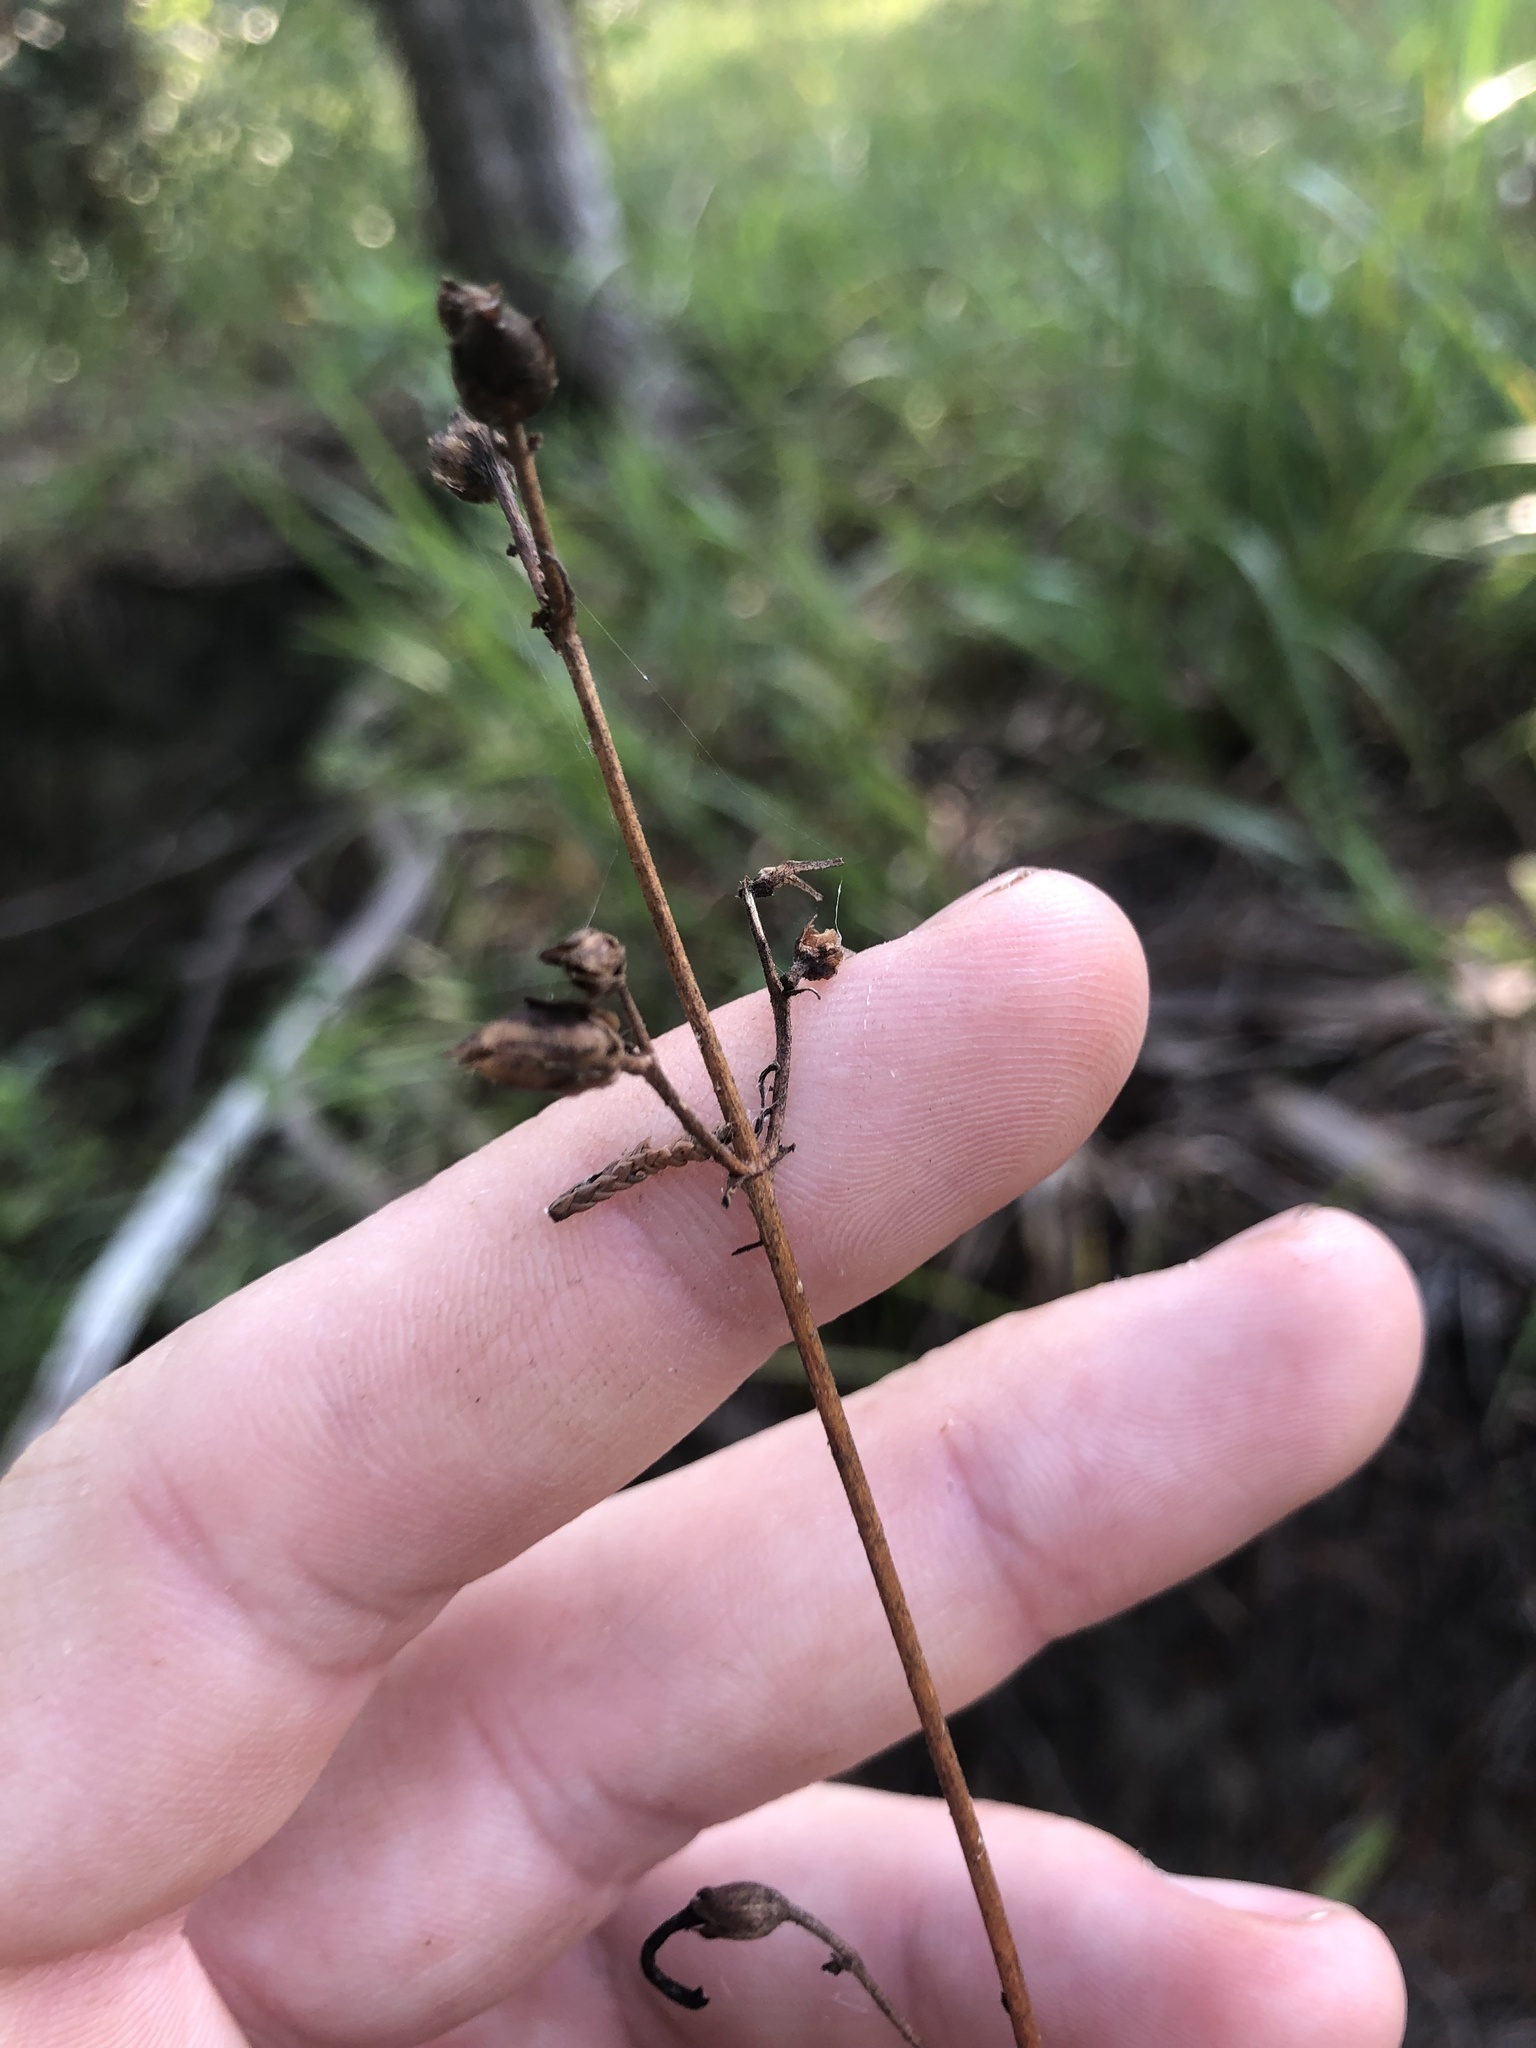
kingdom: Plantae
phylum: Tracheophyta
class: Magnoliopsida
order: Lamiales
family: Plantaginaceae
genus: Penstemon
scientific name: Penstemon tenuiflorus
